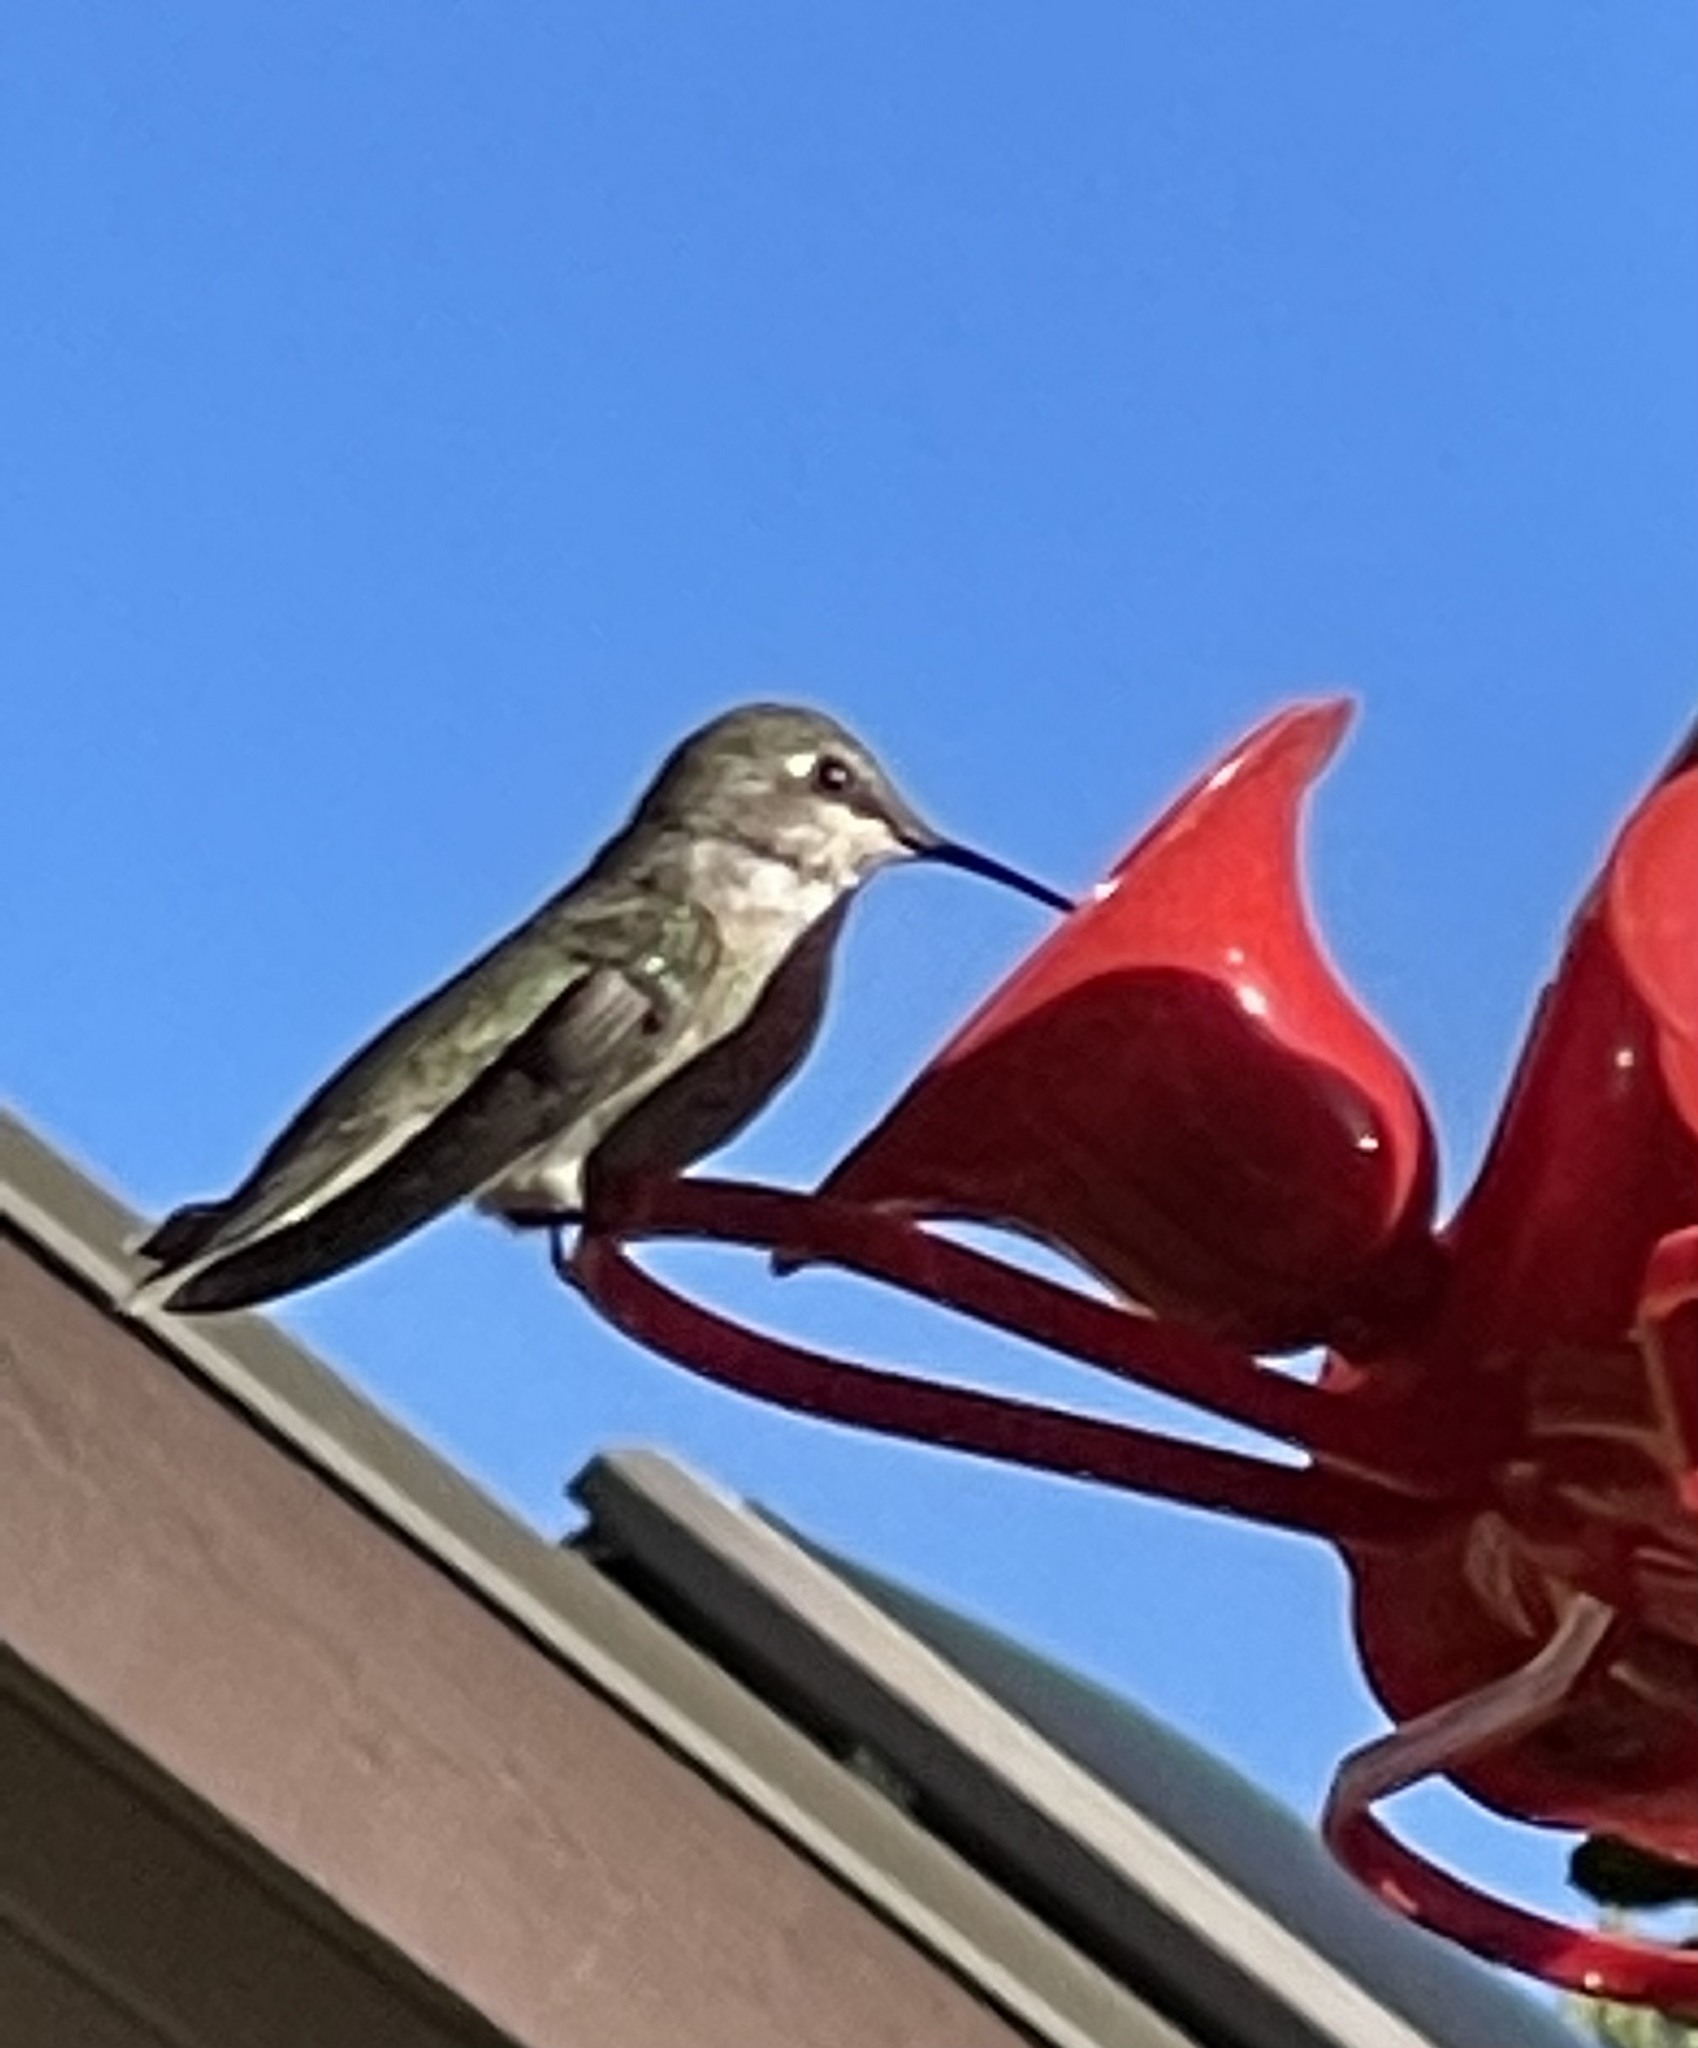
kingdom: Animalia
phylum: Chordata
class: Aves
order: Apodiformes
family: Trochilidae
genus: Calypte
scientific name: Calypte anna
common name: Anna's hummingbird
